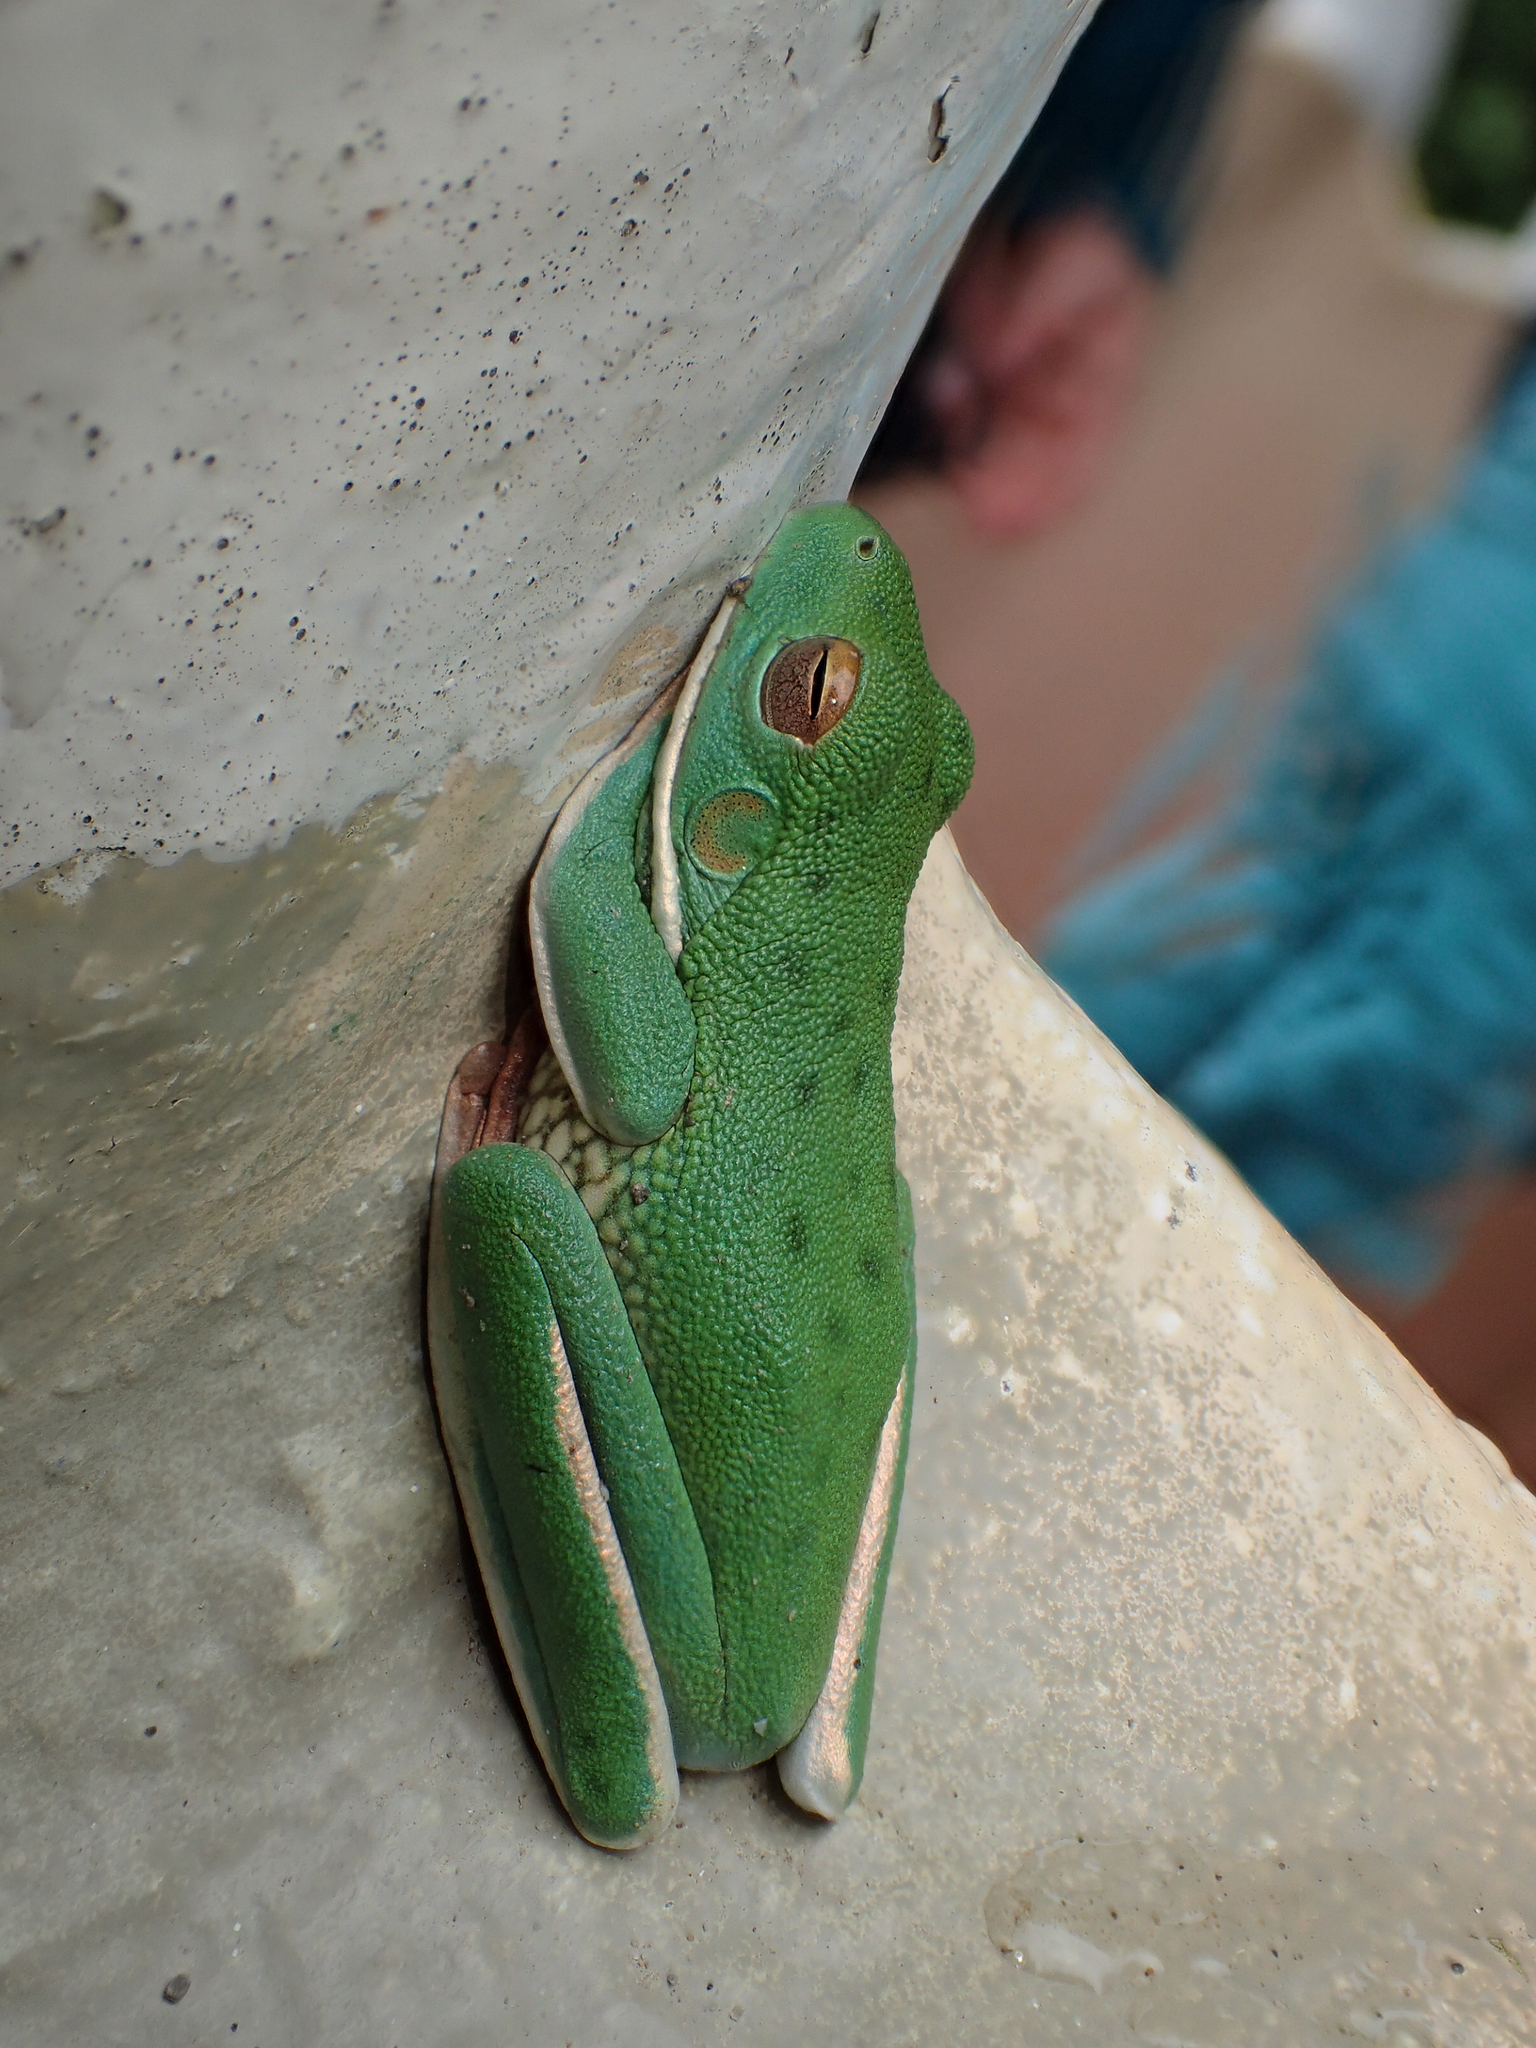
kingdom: Animalia
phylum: Chordata
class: Amphibia
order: Anura
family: Pelodryadidae
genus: Nyctimystes
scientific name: Nyctimystes infrafrenatus
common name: Australian giant treefrog
